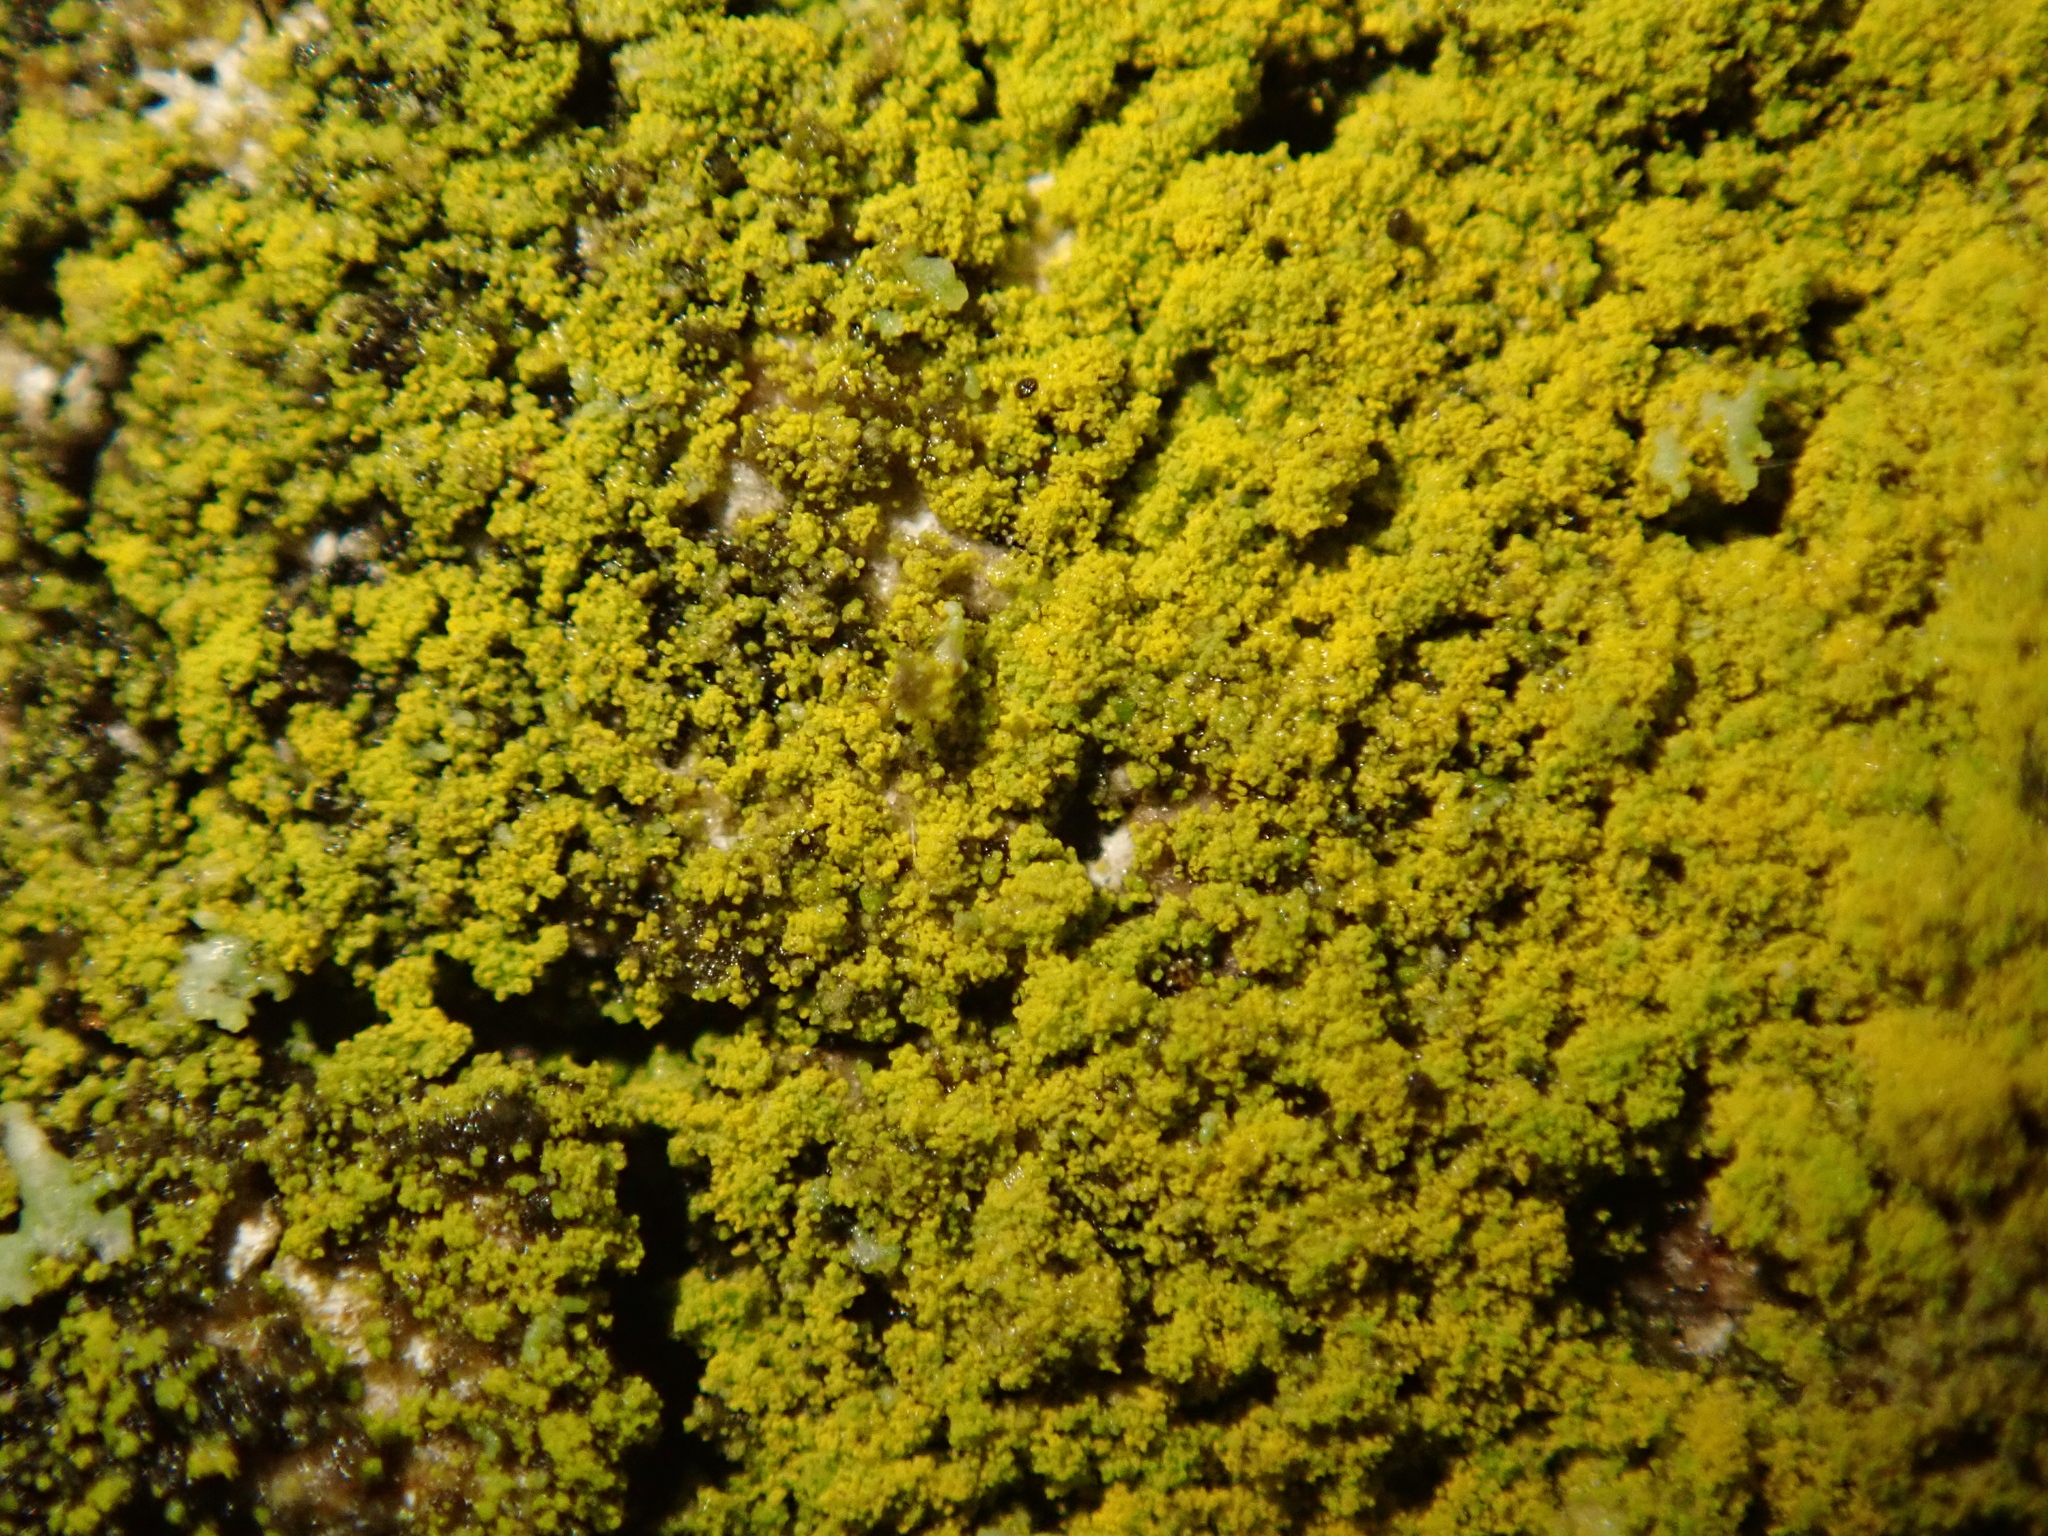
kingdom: Fungi
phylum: Ascomycota
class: Candelariomycetes
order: Candelariales
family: Candelariaceae
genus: Candelariella
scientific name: Candelariella xanthostigma
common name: Granular goldspeck lichen
